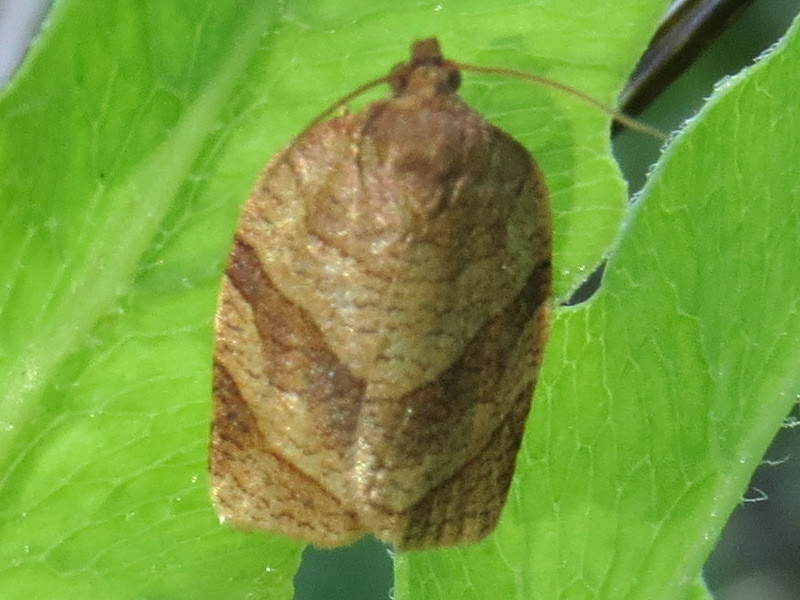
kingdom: Animalia
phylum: Arthropoda
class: Insecta
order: Lepidoptera
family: Tortricidae
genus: Choristoneura
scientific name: Choristoneura parallela
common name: Parallel-banded leafroller moth
